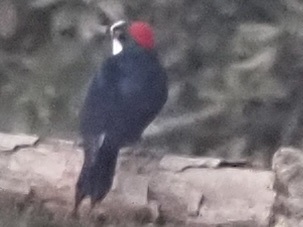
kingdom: Animalia
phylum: Chordata
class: Aves
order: Piciformes
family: Picidae
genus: Melanerpes
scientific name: Melanerpes formicivorus
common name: Acorn woodpecker
